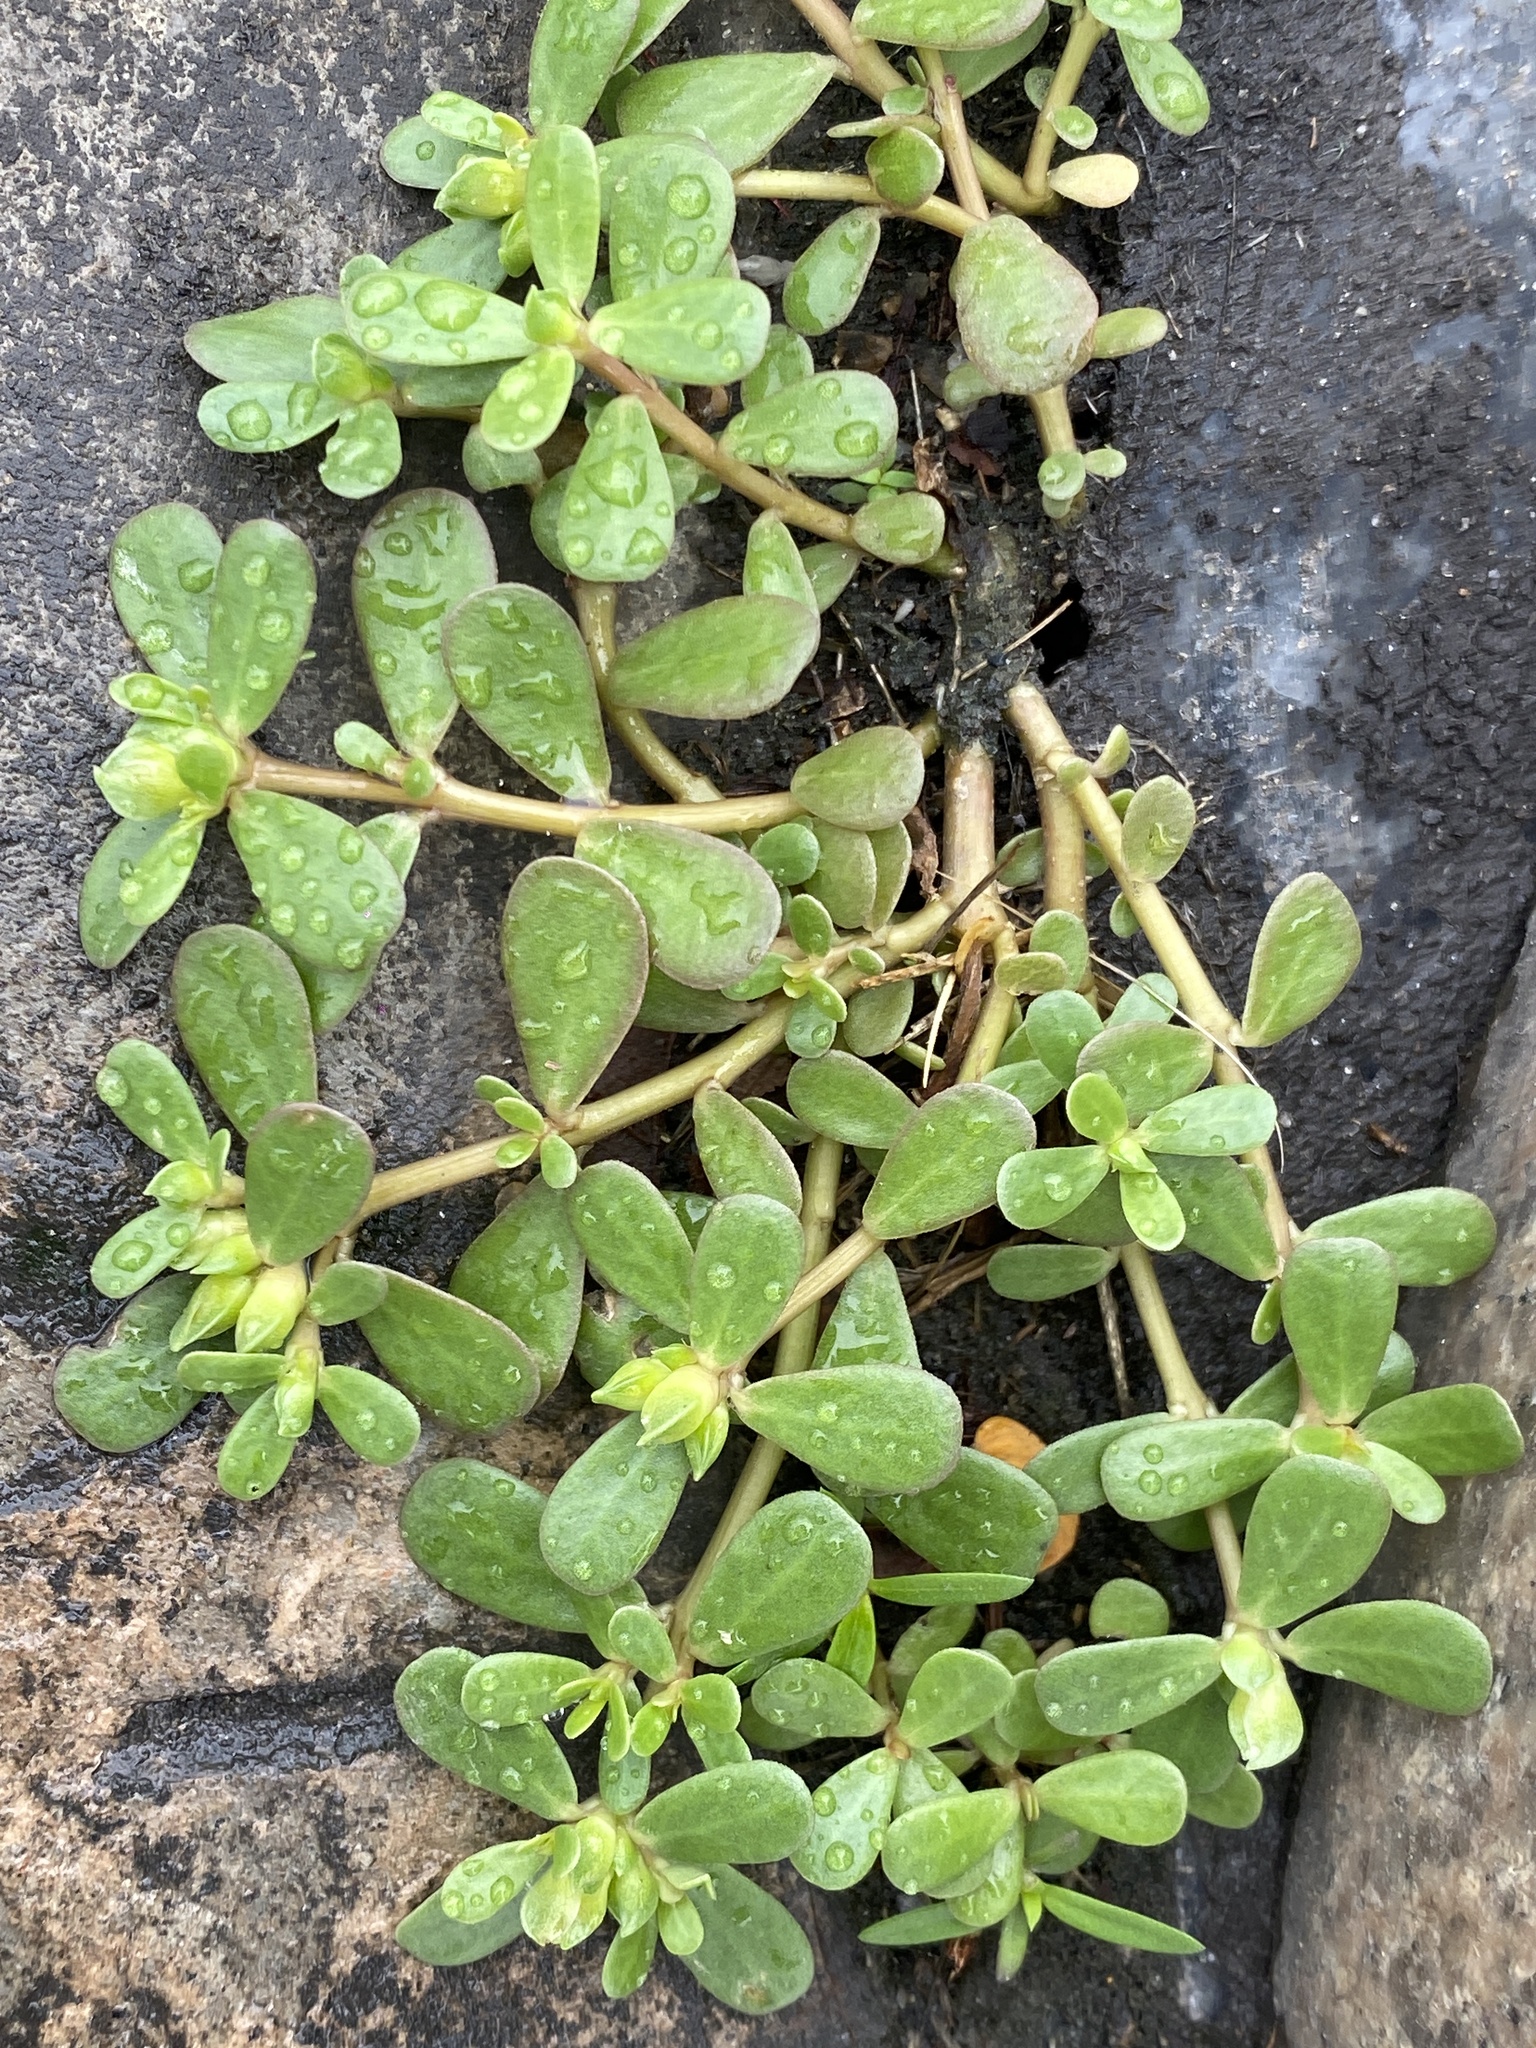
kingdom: Plantae
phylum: Tracheophyta
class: Magnoliopsida
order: Caryophyllales
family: Portulacaceae
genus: Portulaca
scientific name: Portulaca oleracea
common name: Common purslane
